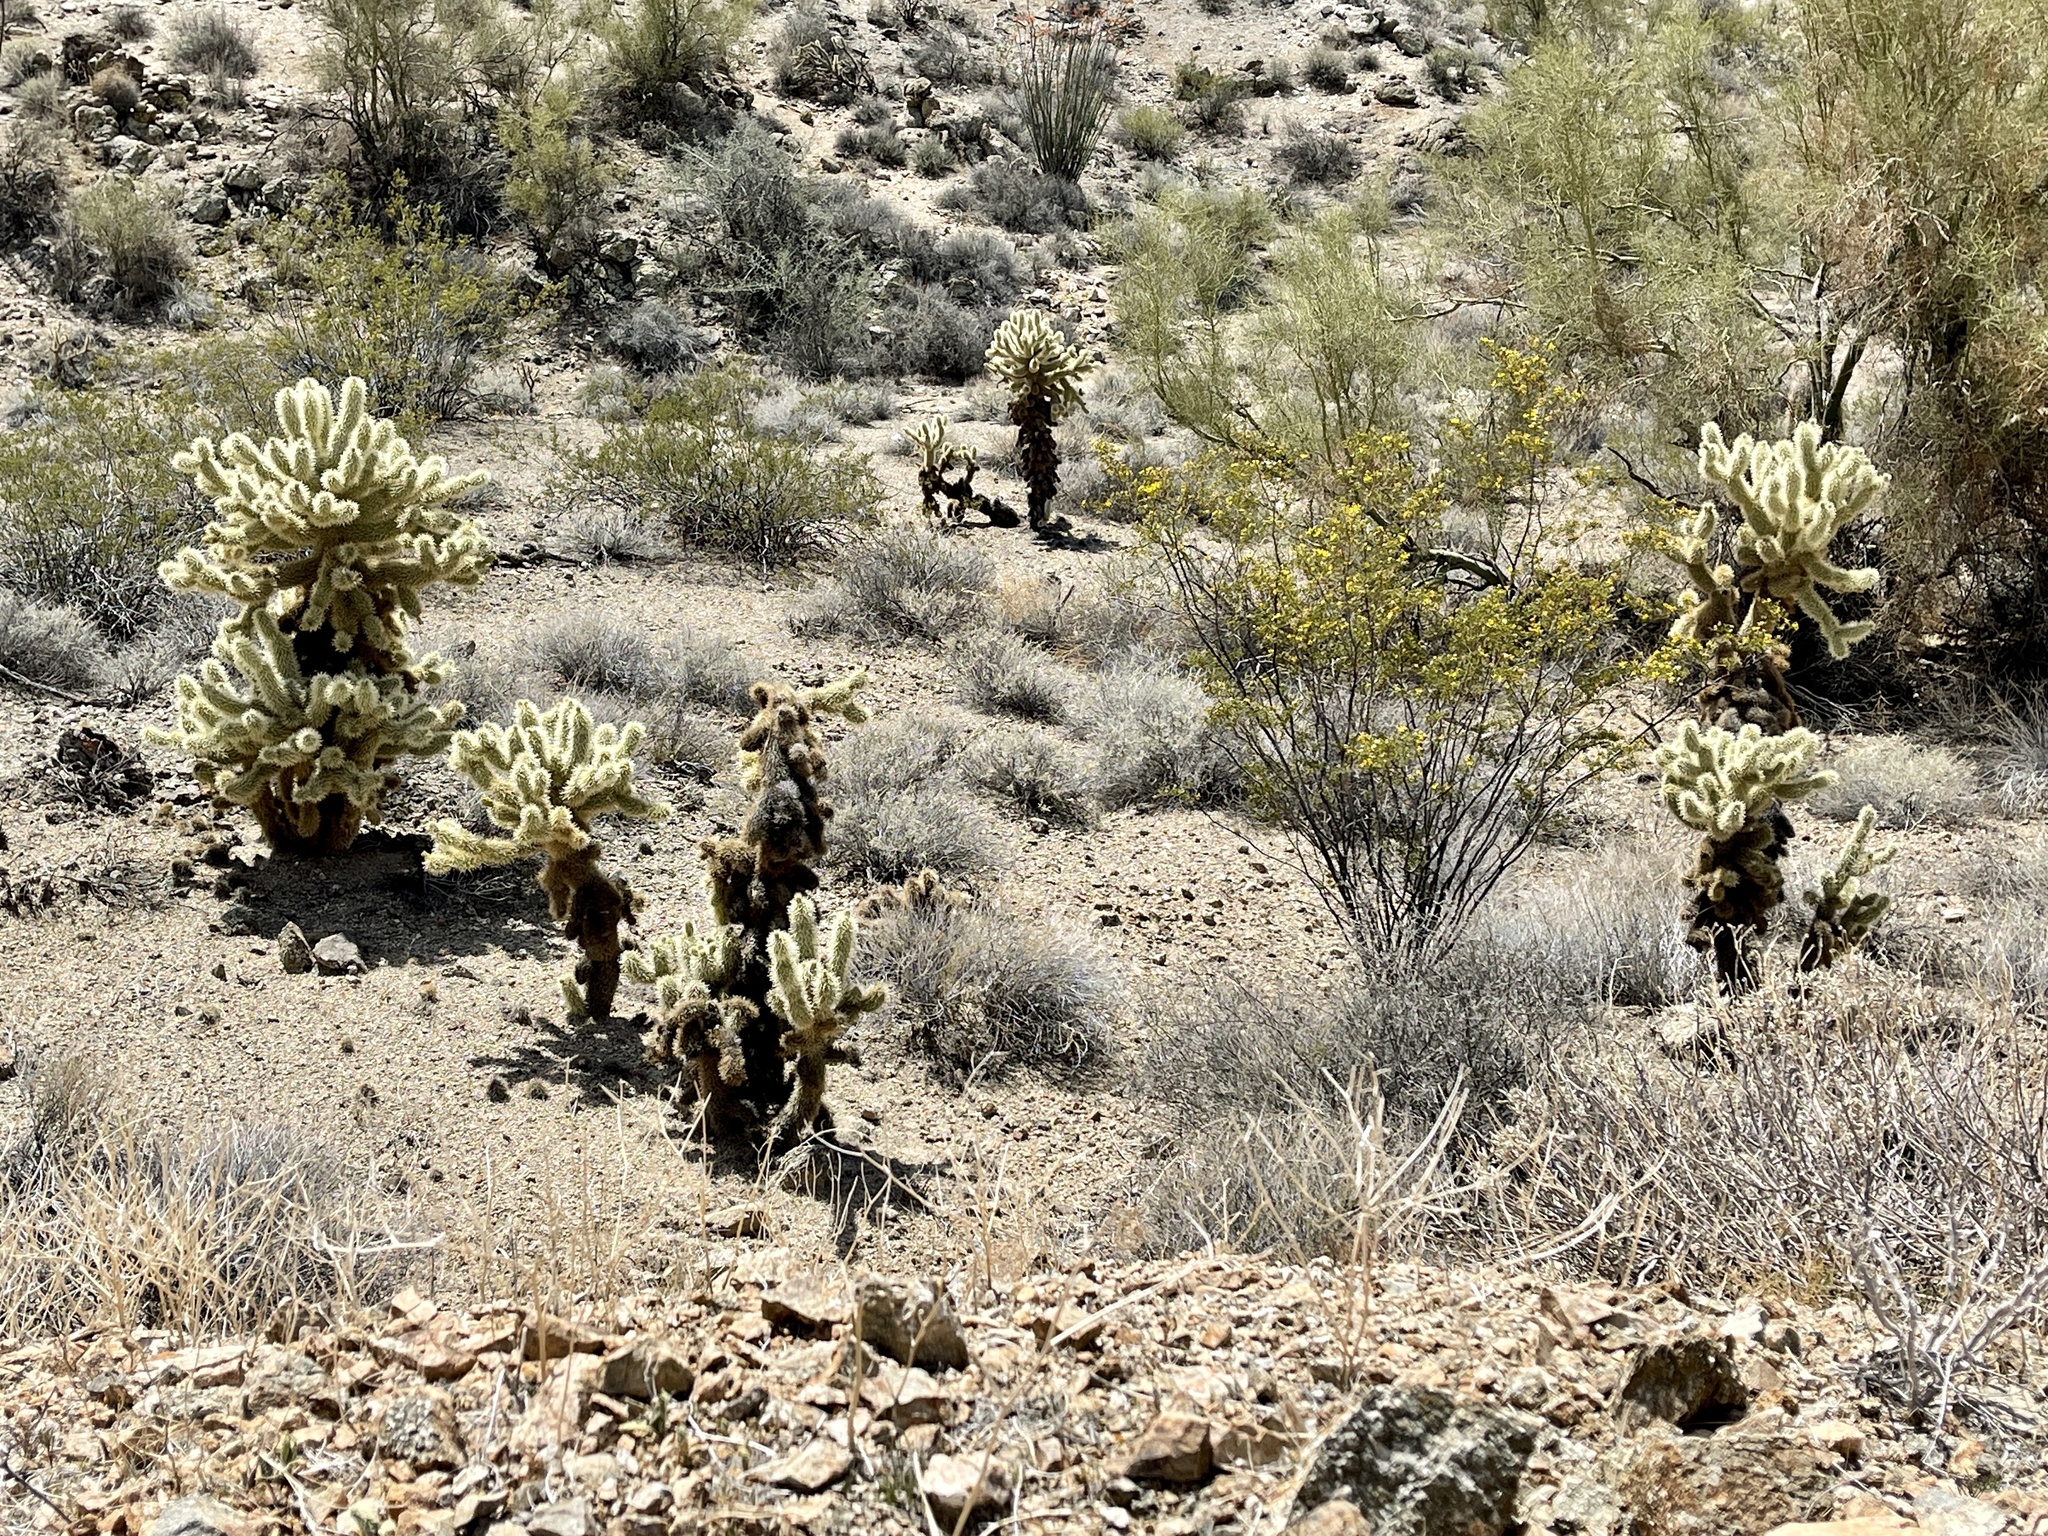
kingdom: Plantae
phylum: Tracheophyta
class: Magnoliopsida
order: Caryophyllales
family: Cactaceae
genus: Cylindropuntia
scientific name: Cylindropuntia fosbergii
